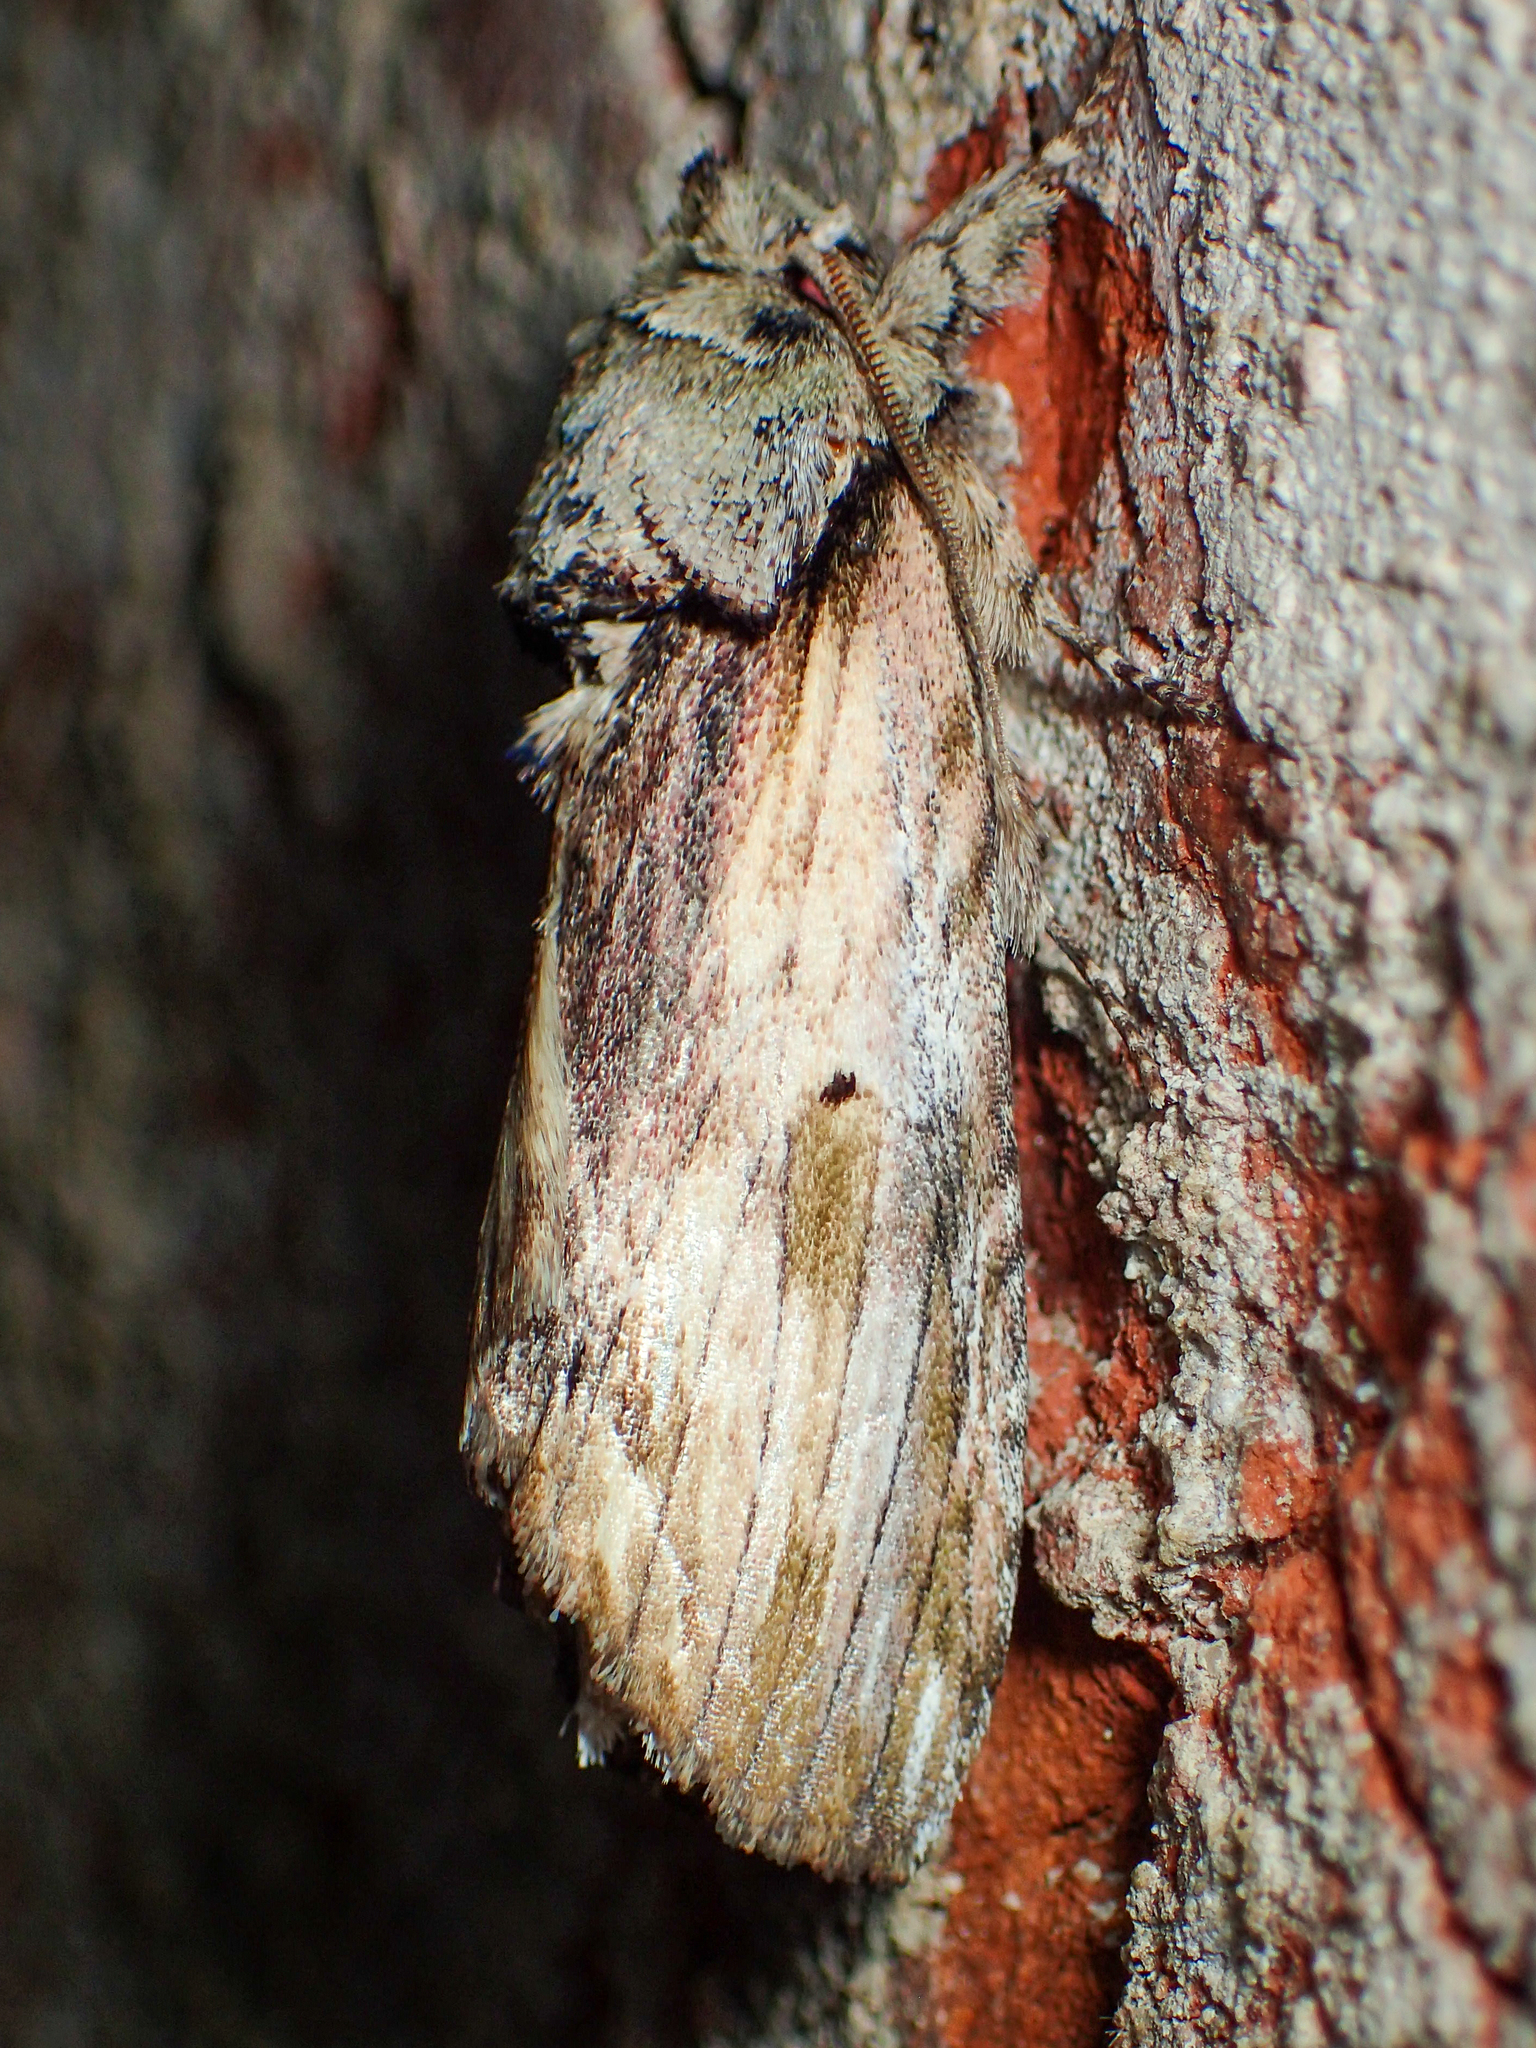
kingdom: Animalia
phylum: Arthropoda
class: Insecta
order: Lepidoptera
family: Notodontidae
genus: Schizura
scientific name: Schizura
